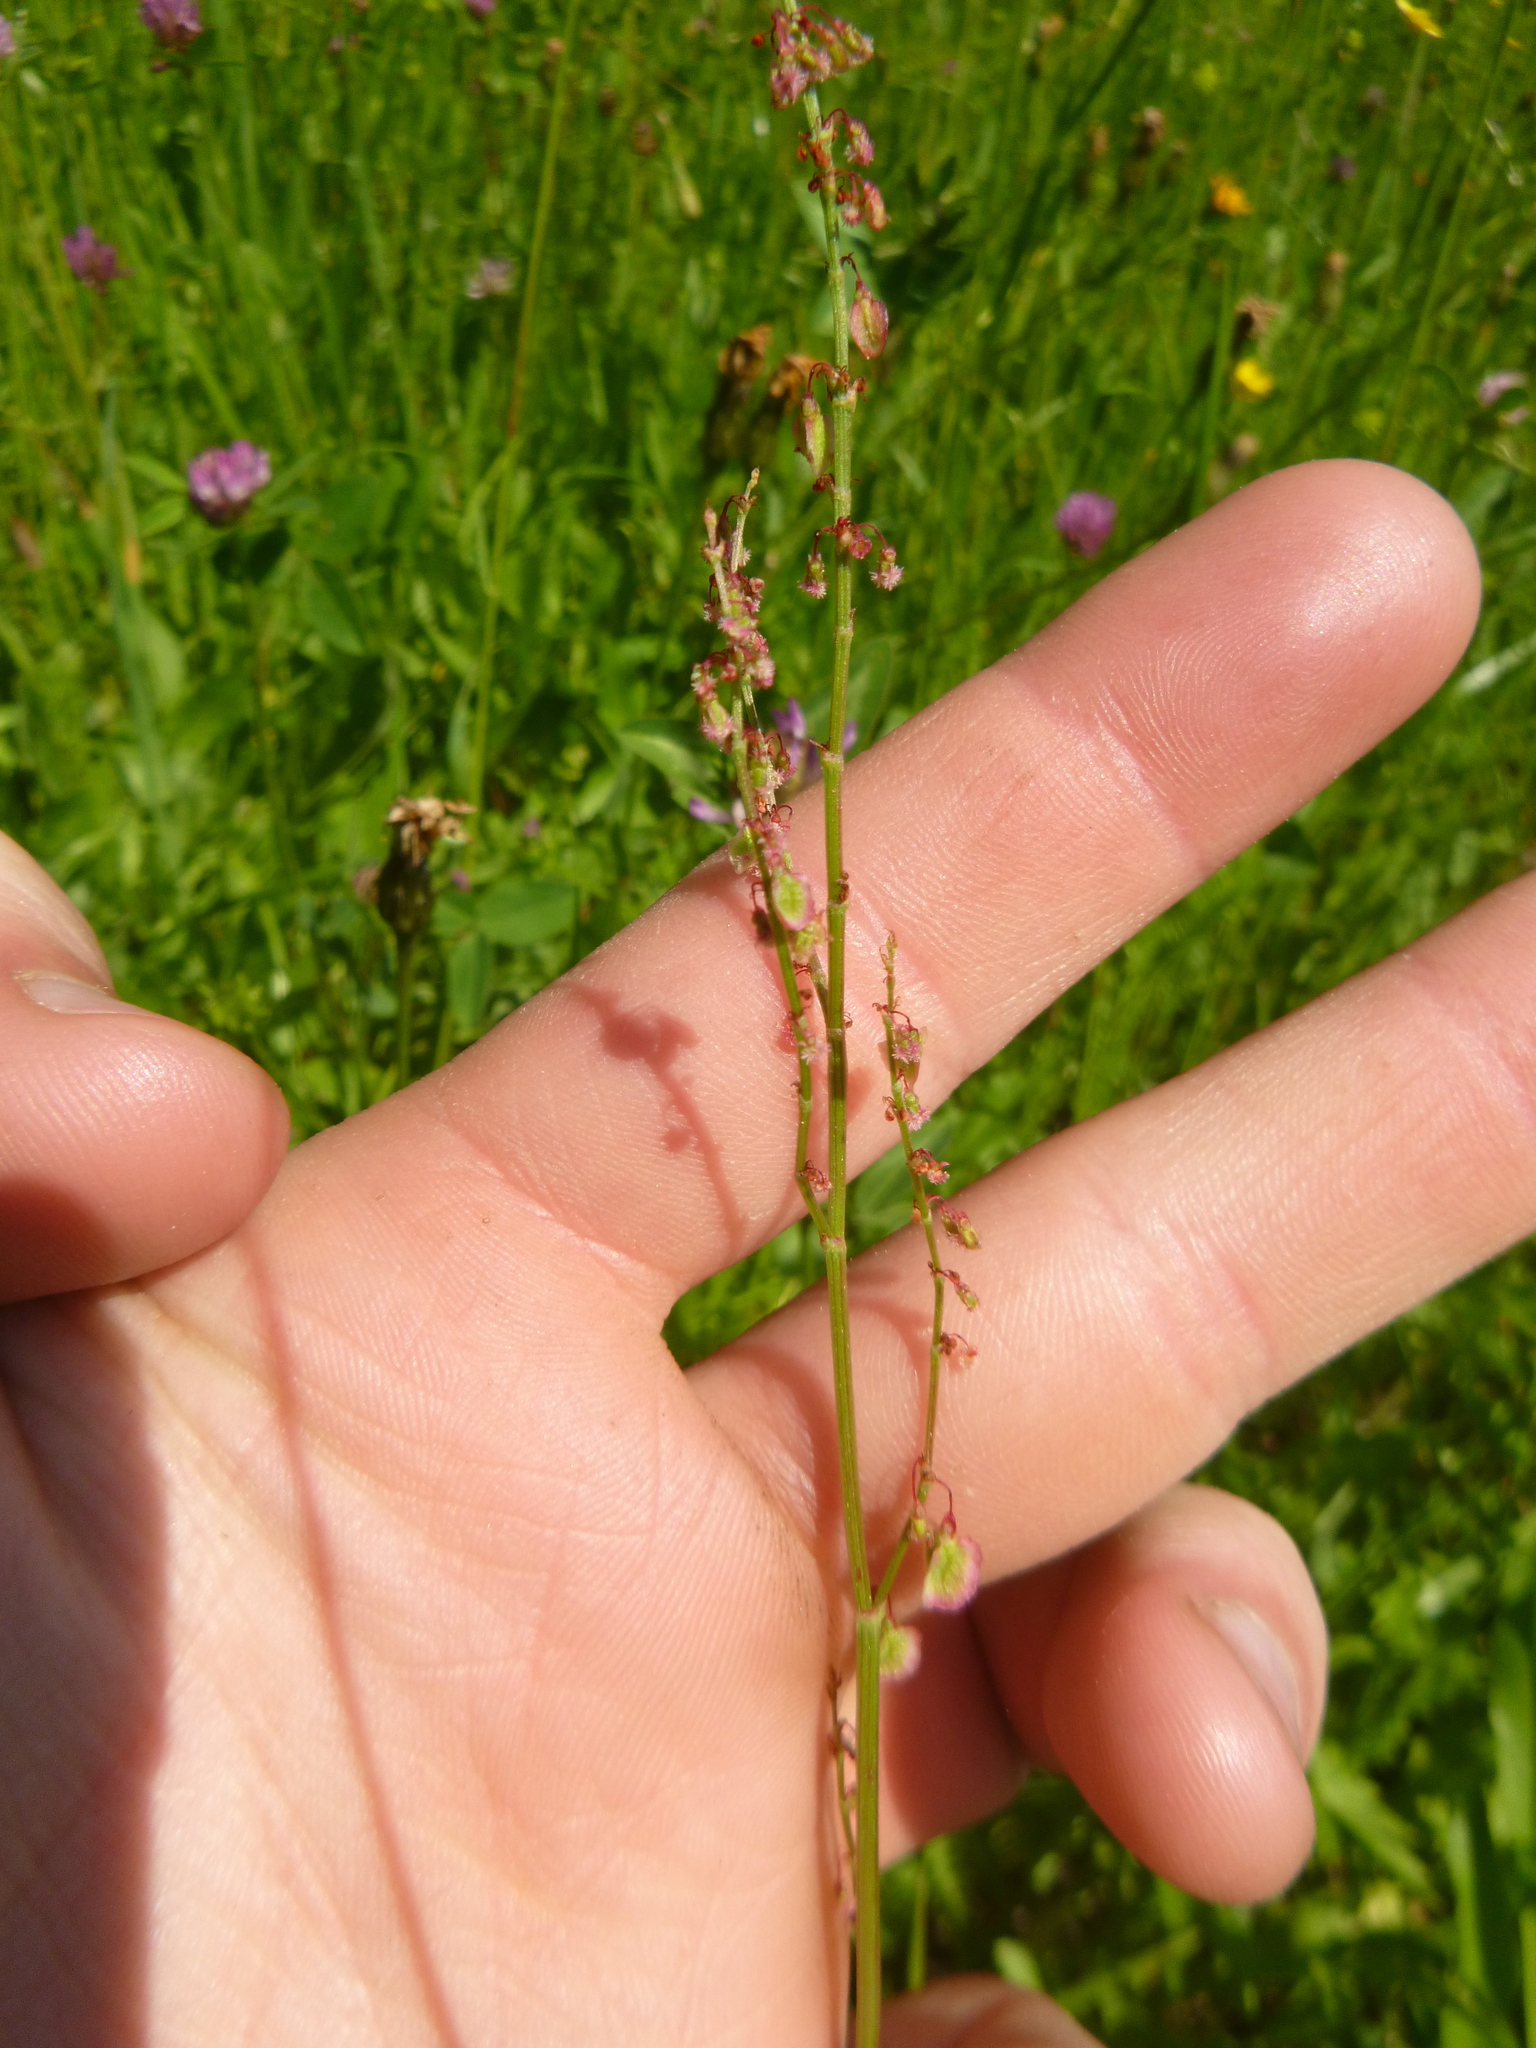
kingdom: Plantae
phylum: Tracheophyta
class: Magnoliopsida
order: Caryophyllales
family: Polygonaceae
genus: Rumex
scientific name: Rumex acetosa
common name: Garden sorrel
